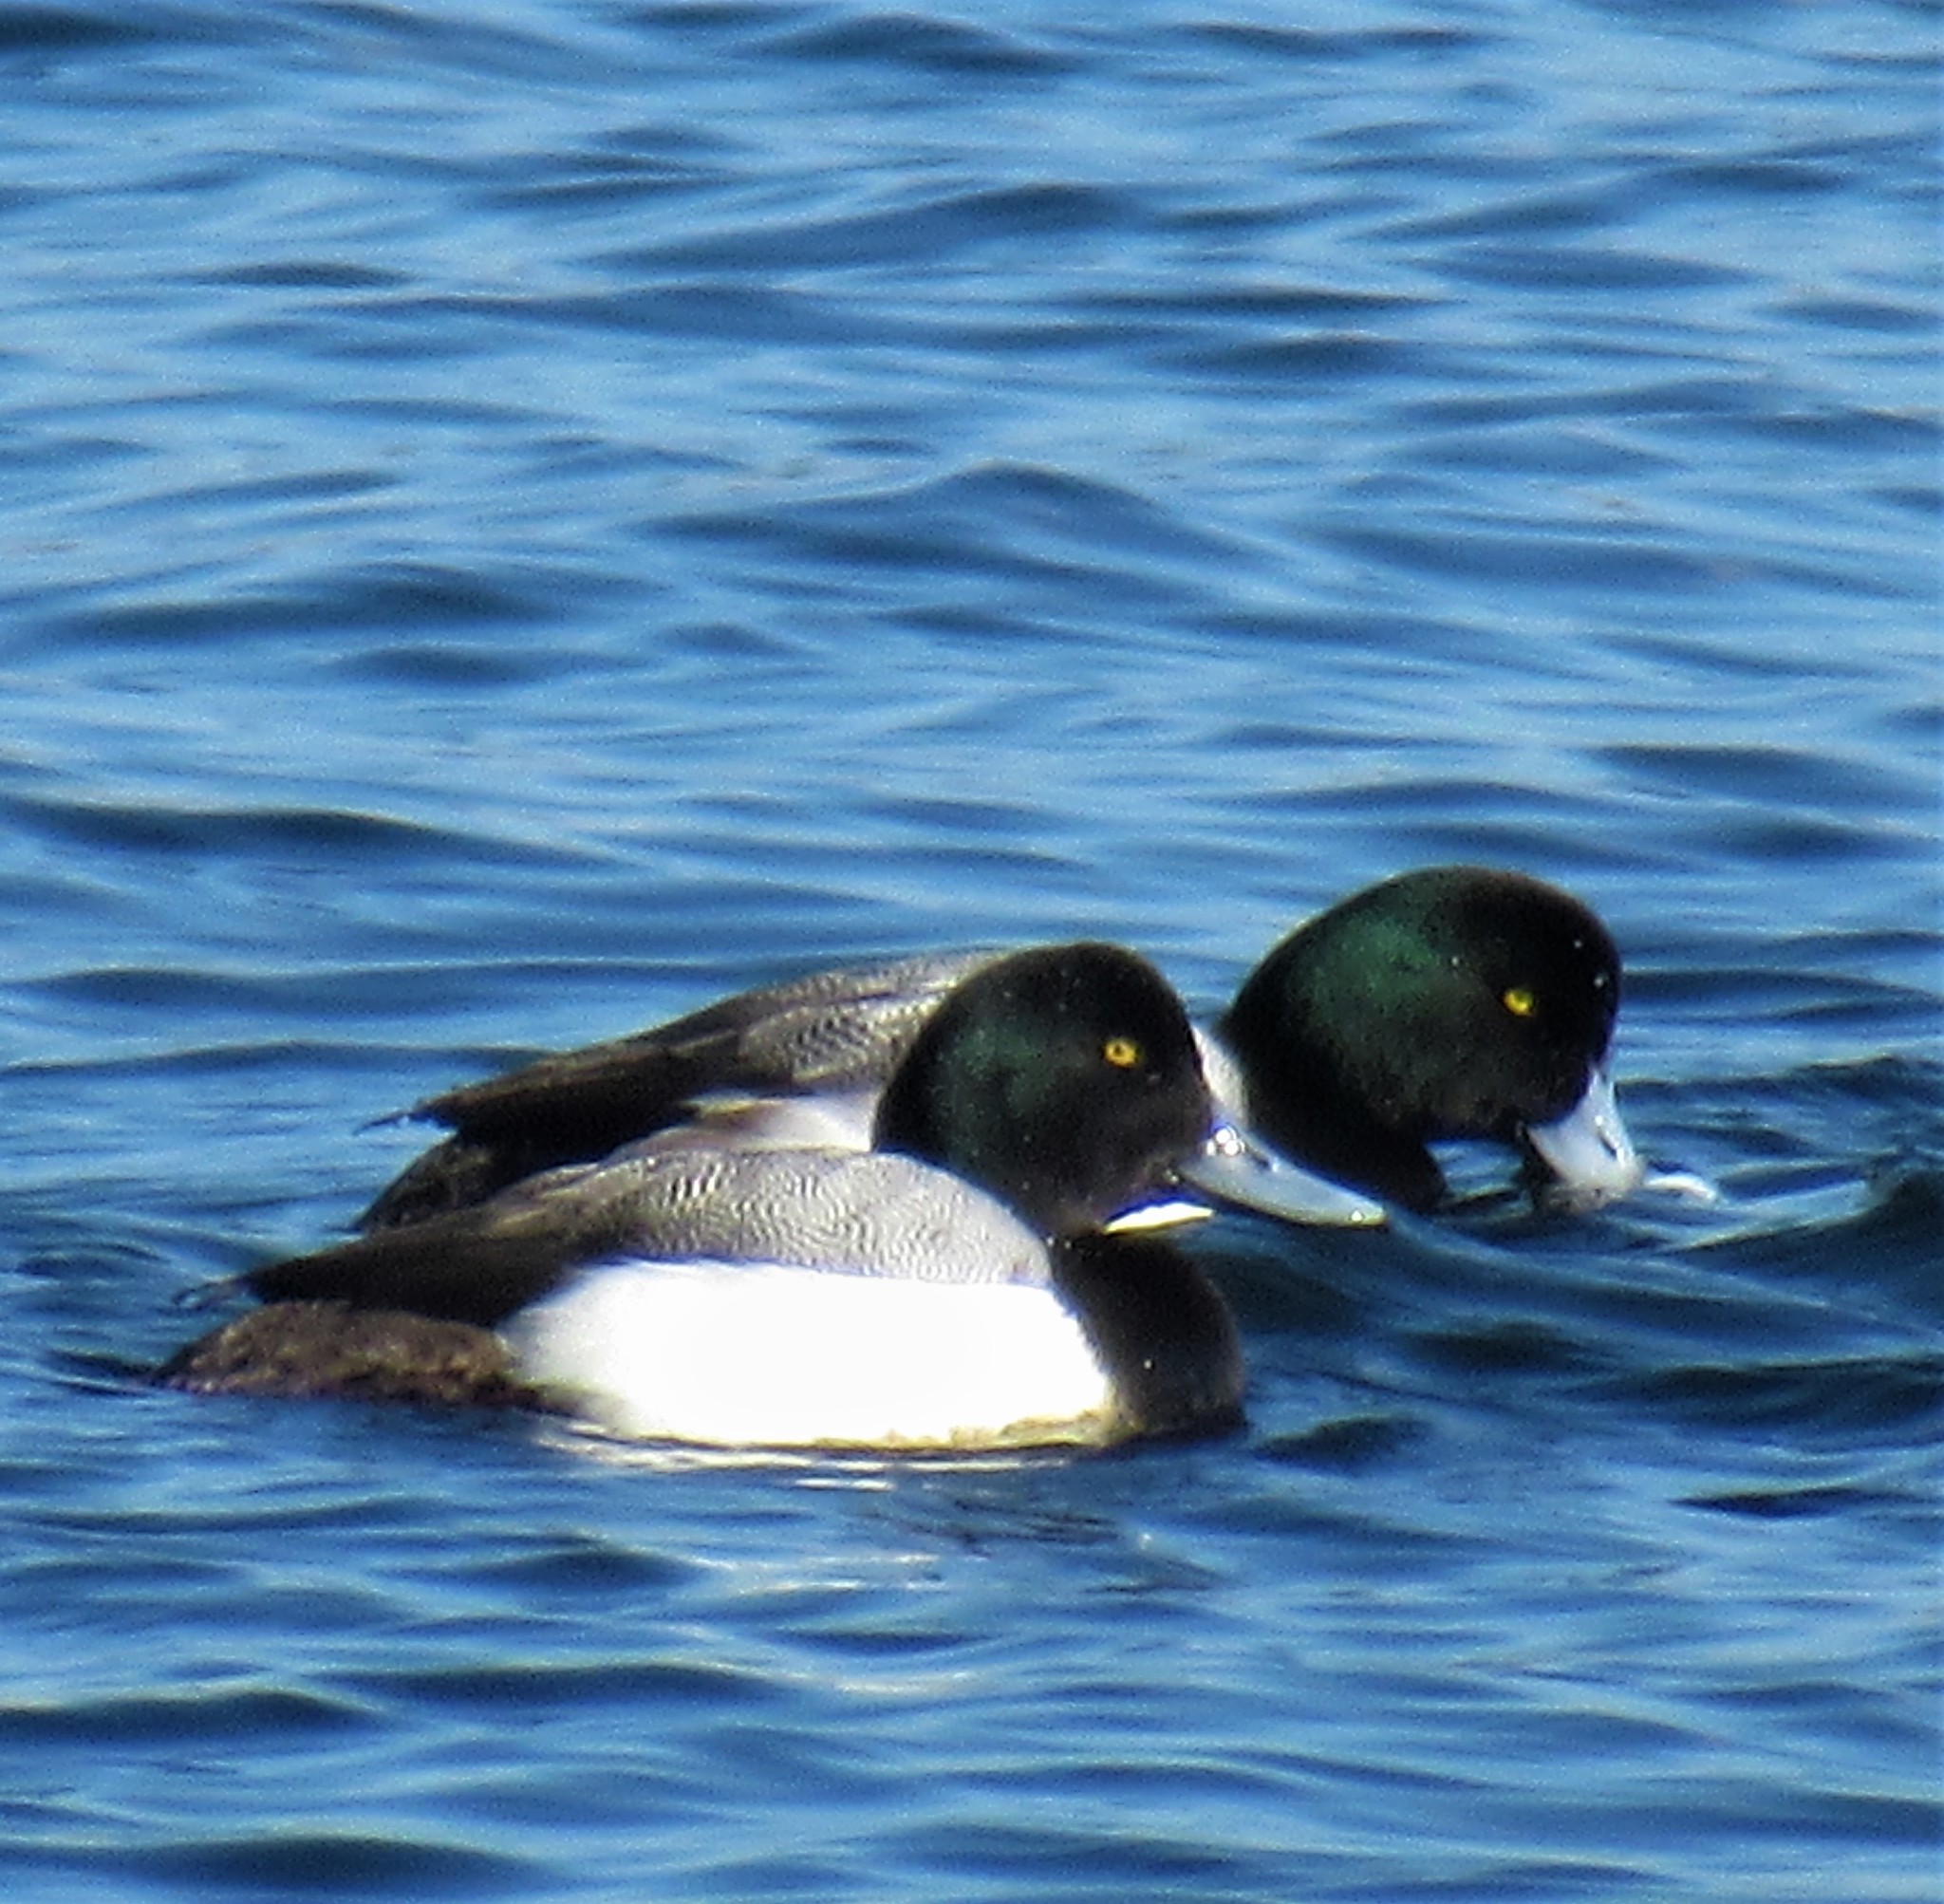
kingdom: Animalia
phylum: Chordata
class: Aves
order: Anseriformes
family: Anatidae
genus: Aythya
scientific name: Aythya marila
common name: Greater scaup
